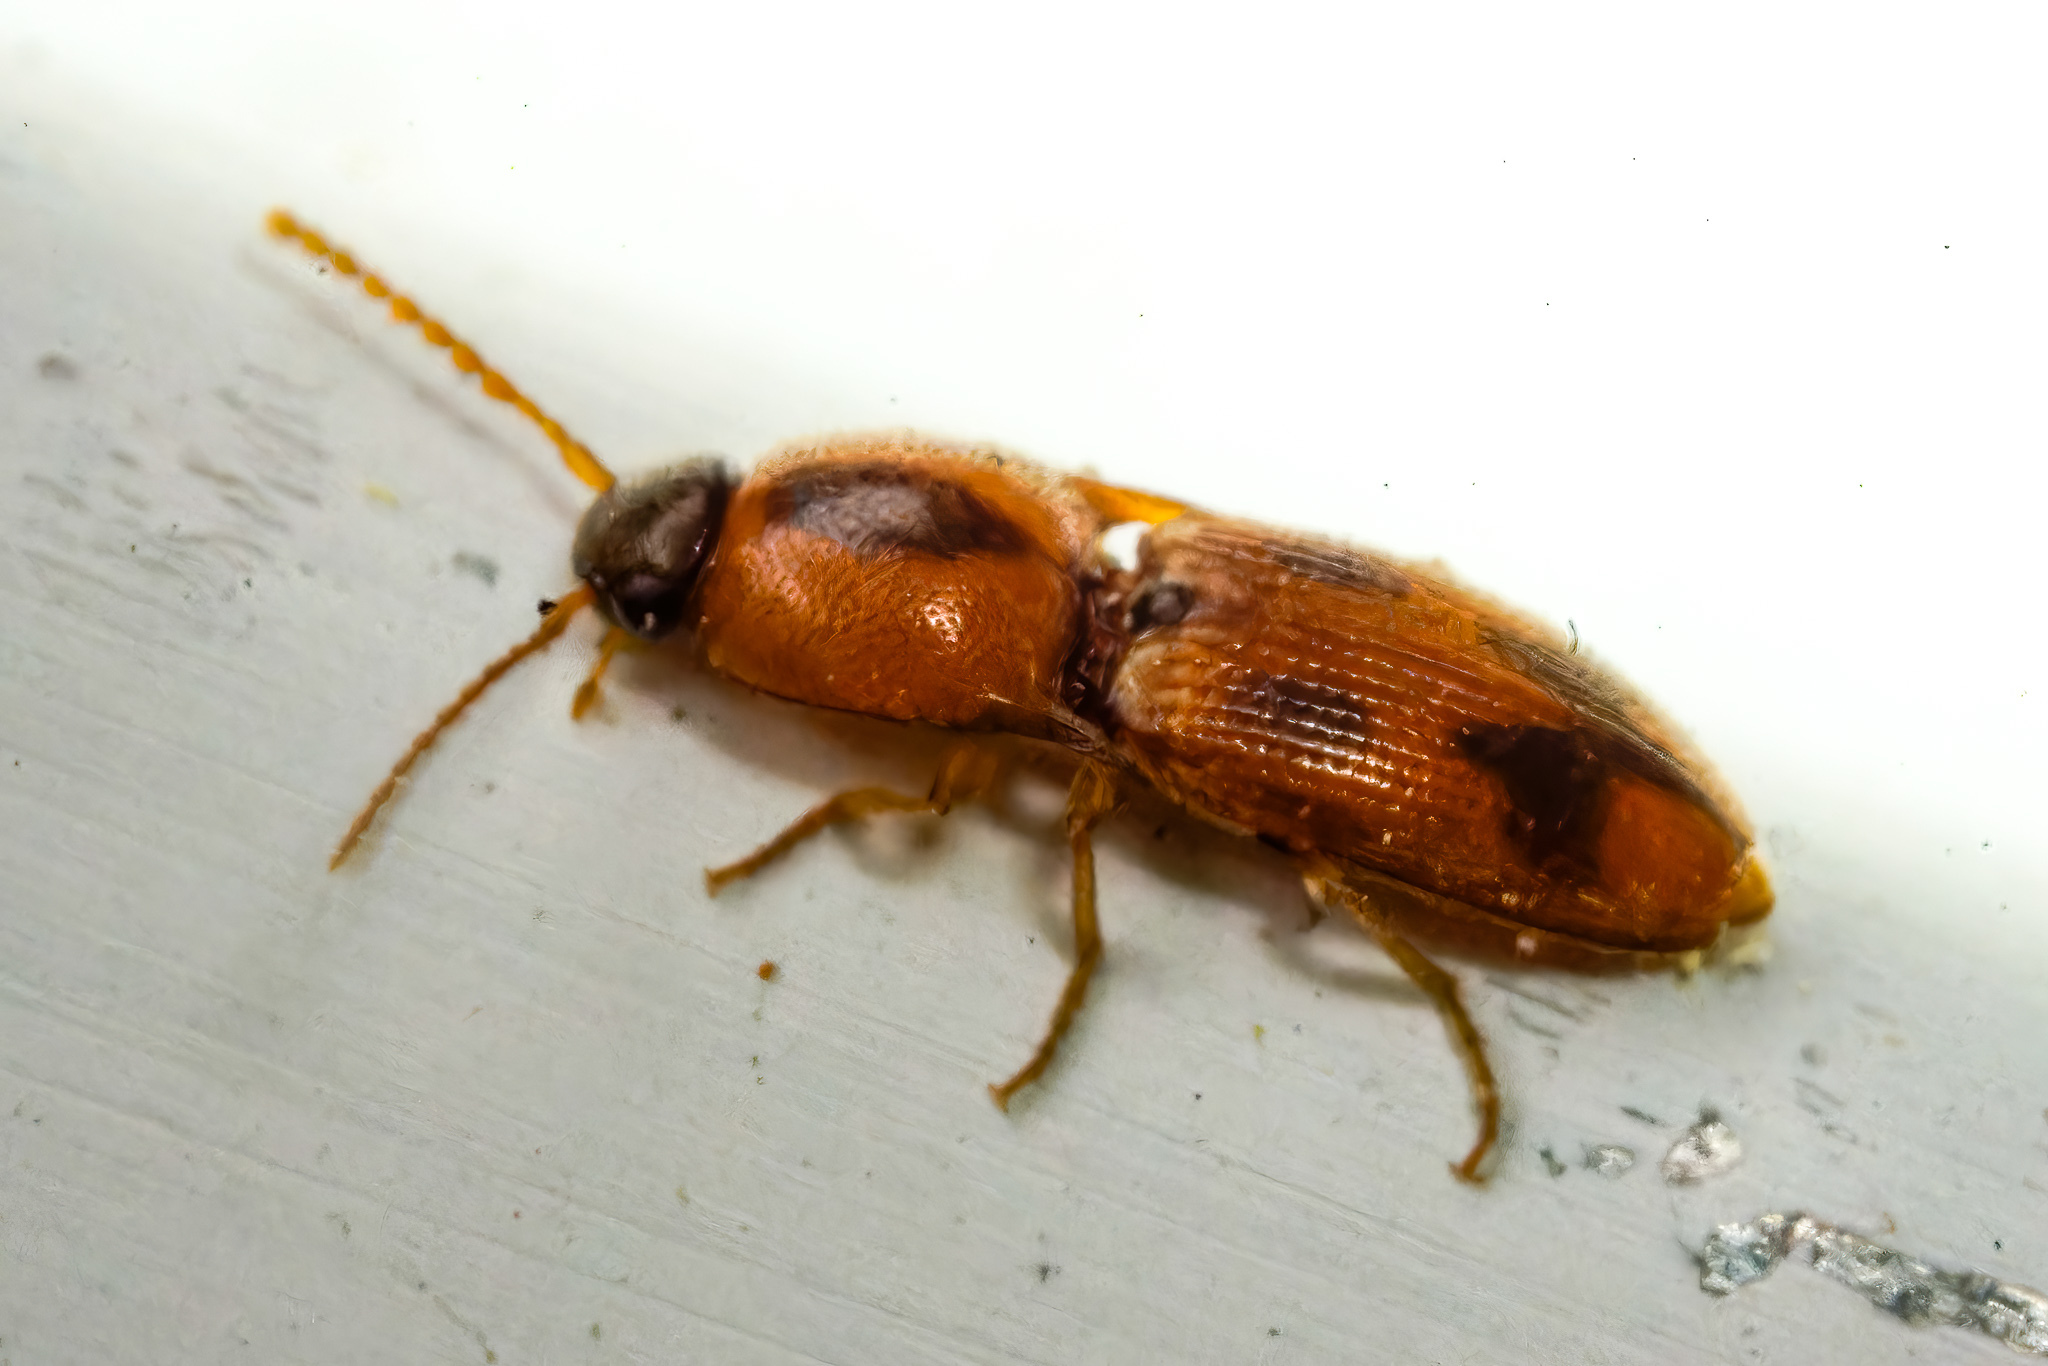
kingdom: Animalia
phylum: Arthropoda
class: Insecta
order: Coleoptera
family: Elateridae
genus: Aeolus
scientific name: Aeolus mellillus
